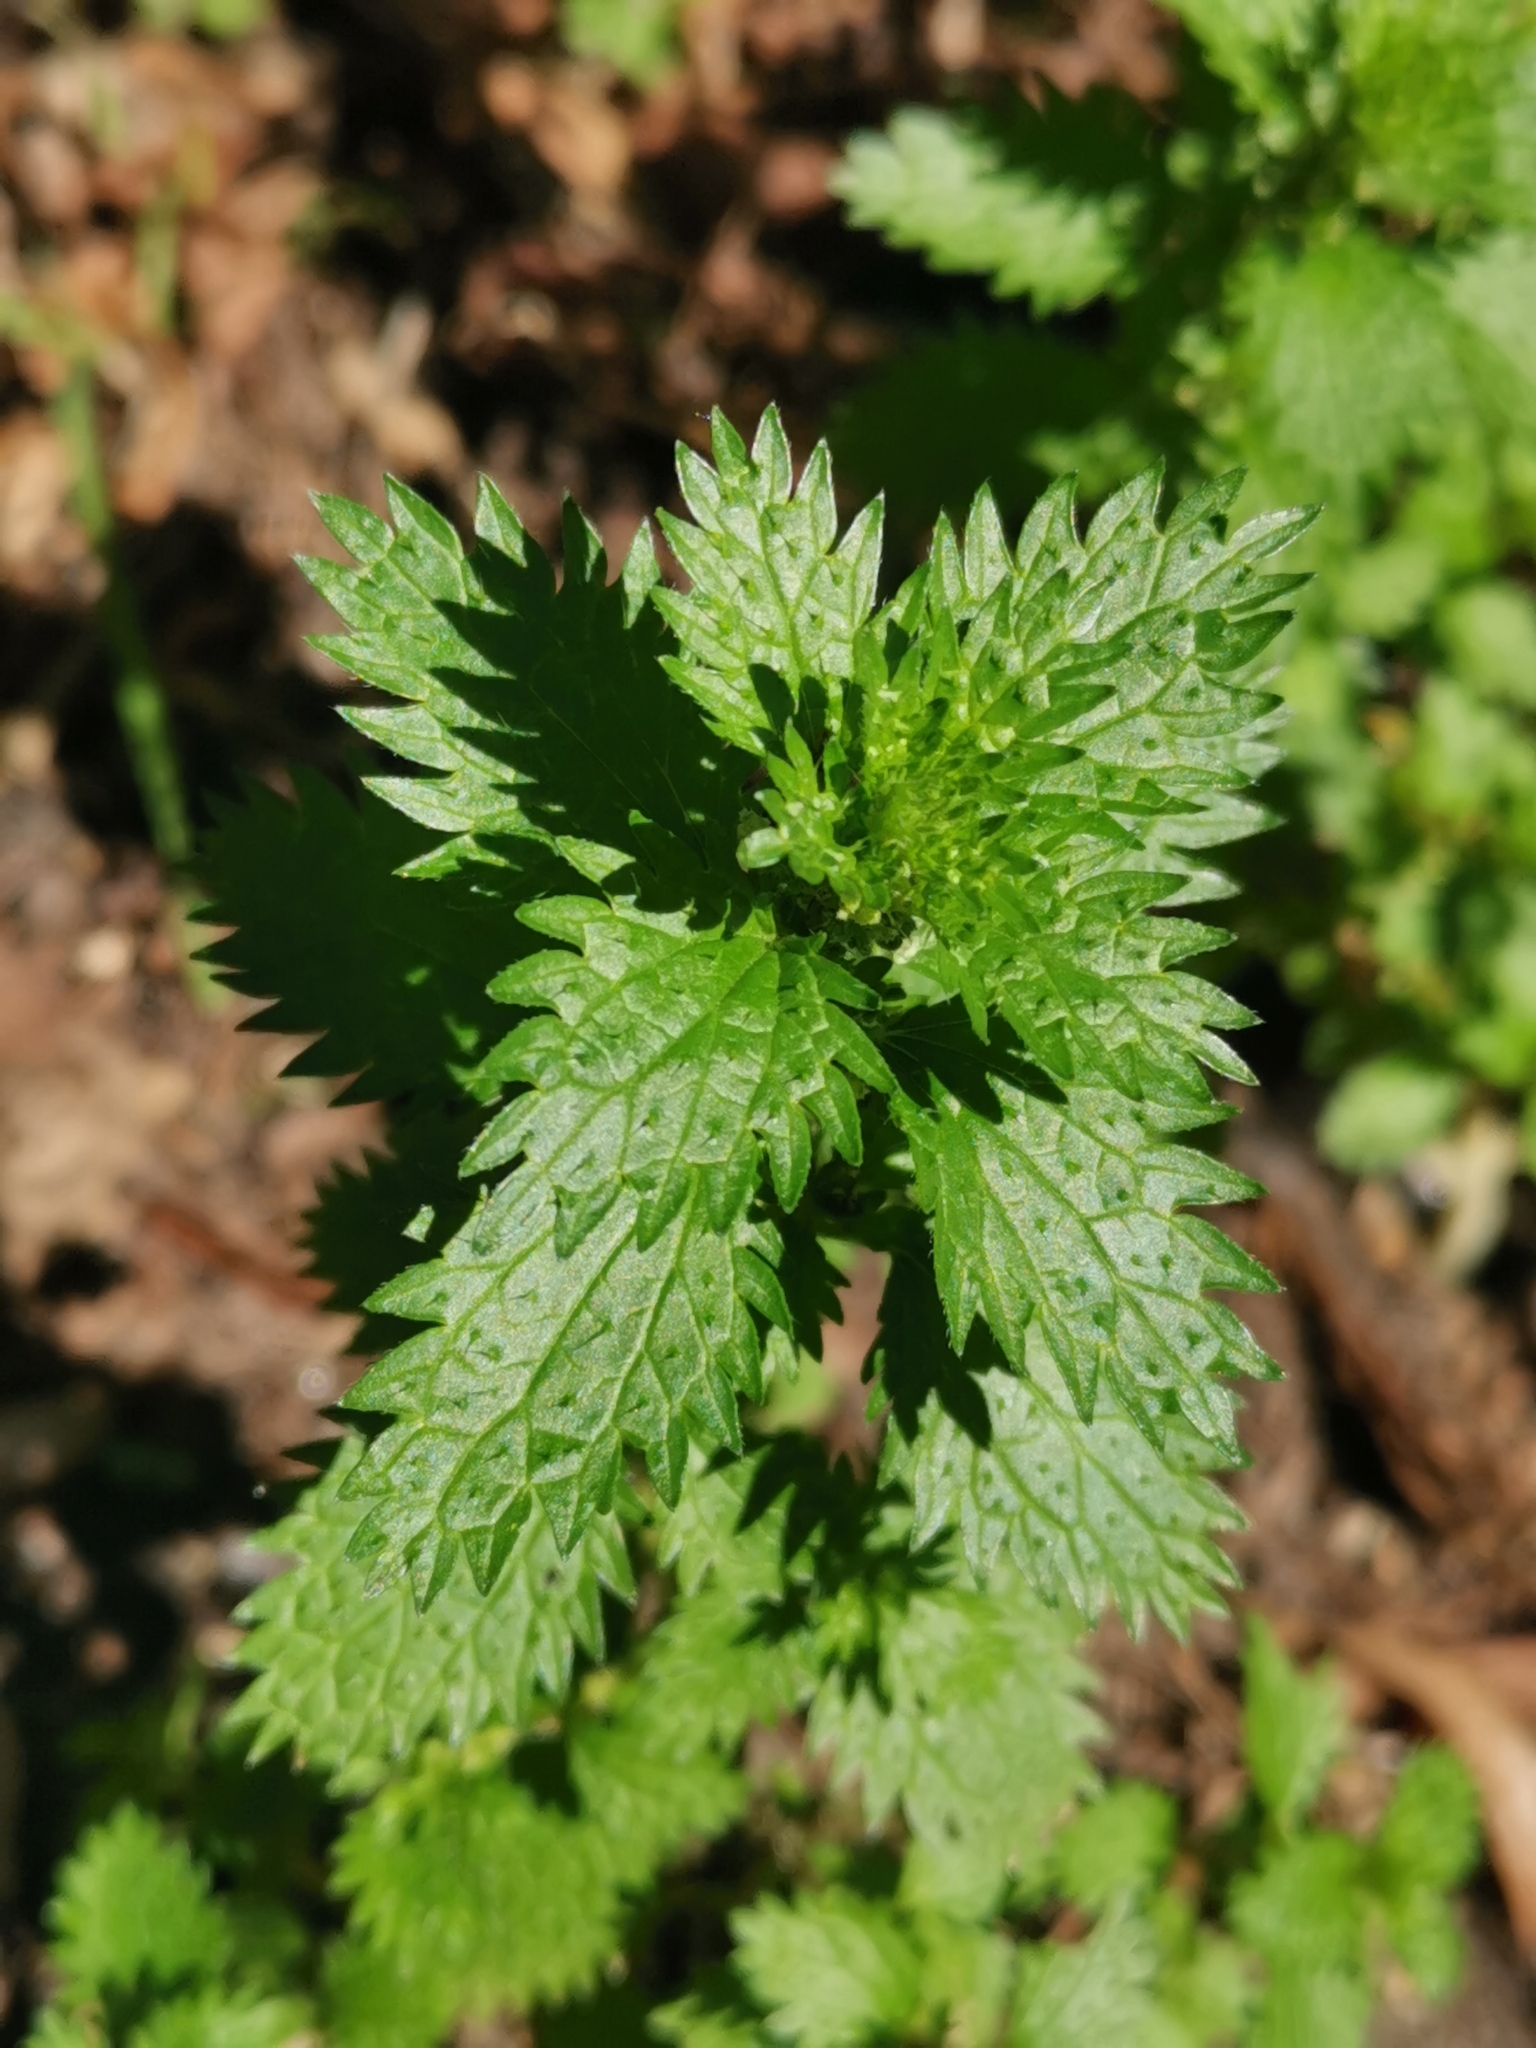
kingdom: Plantae
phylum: Tracheophyta
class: Magnoliopsida
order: Rosales
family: Urticaceae
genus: Urtica
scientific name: Urtica urens
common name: Dwarf nettle
